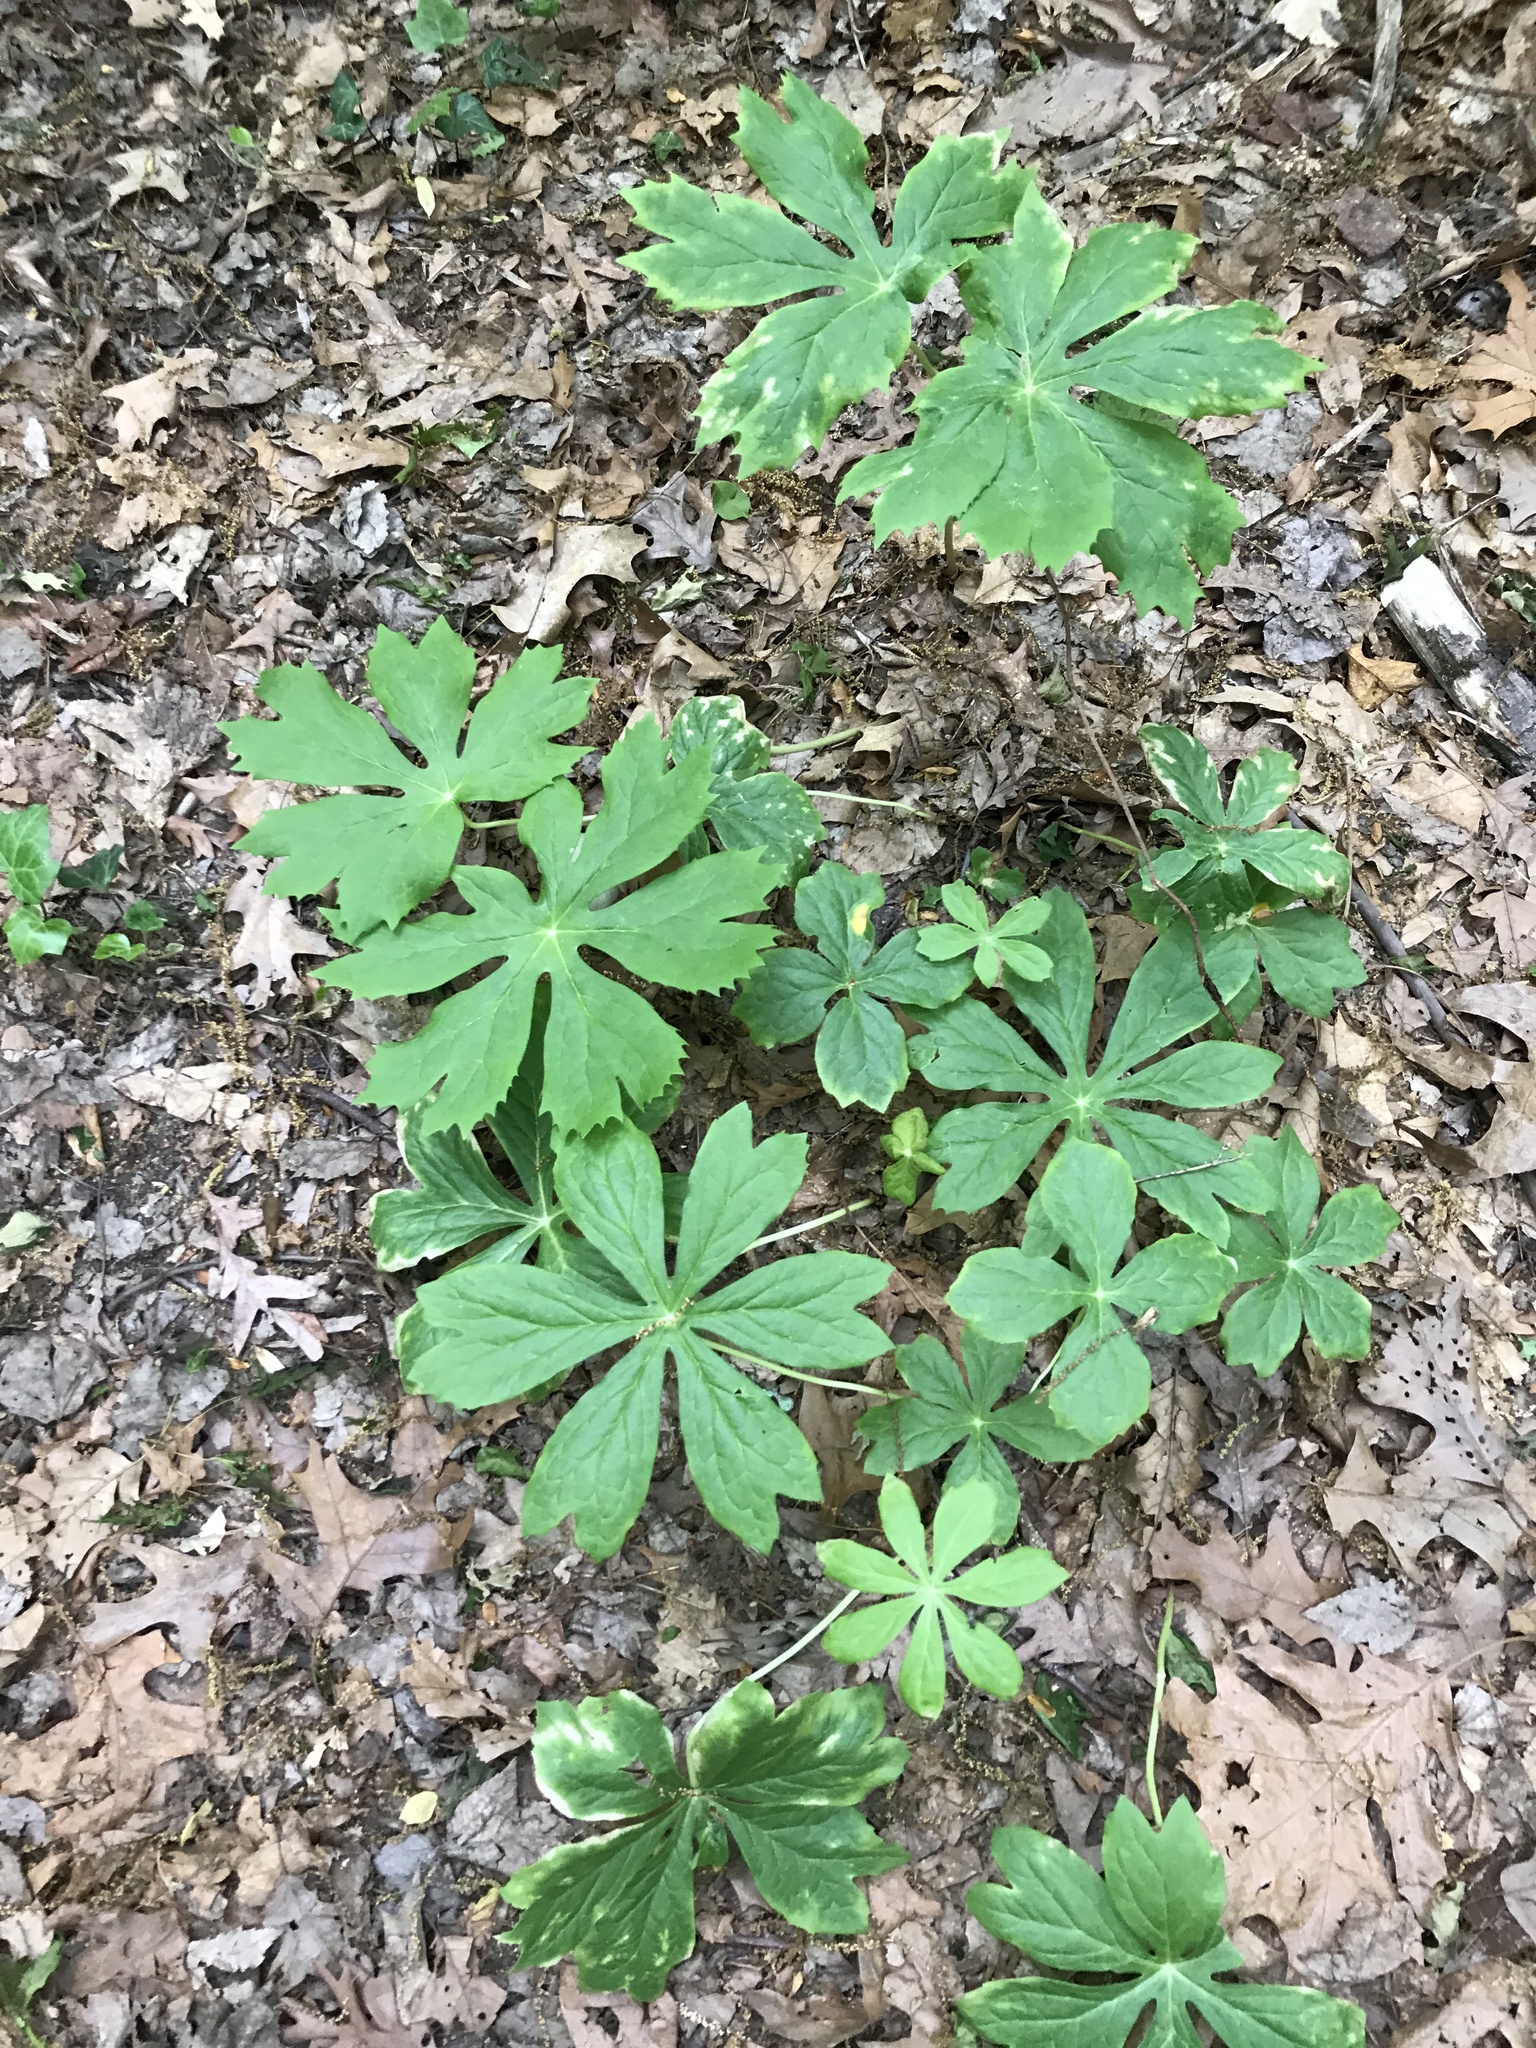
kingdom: Plantae
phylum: Tracheophyta
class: Magnoliopsida
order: Ranunculales
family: Berberidaceae
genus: Podophyllum
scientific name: Podophyllum peltatum
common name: Wild mandrake
